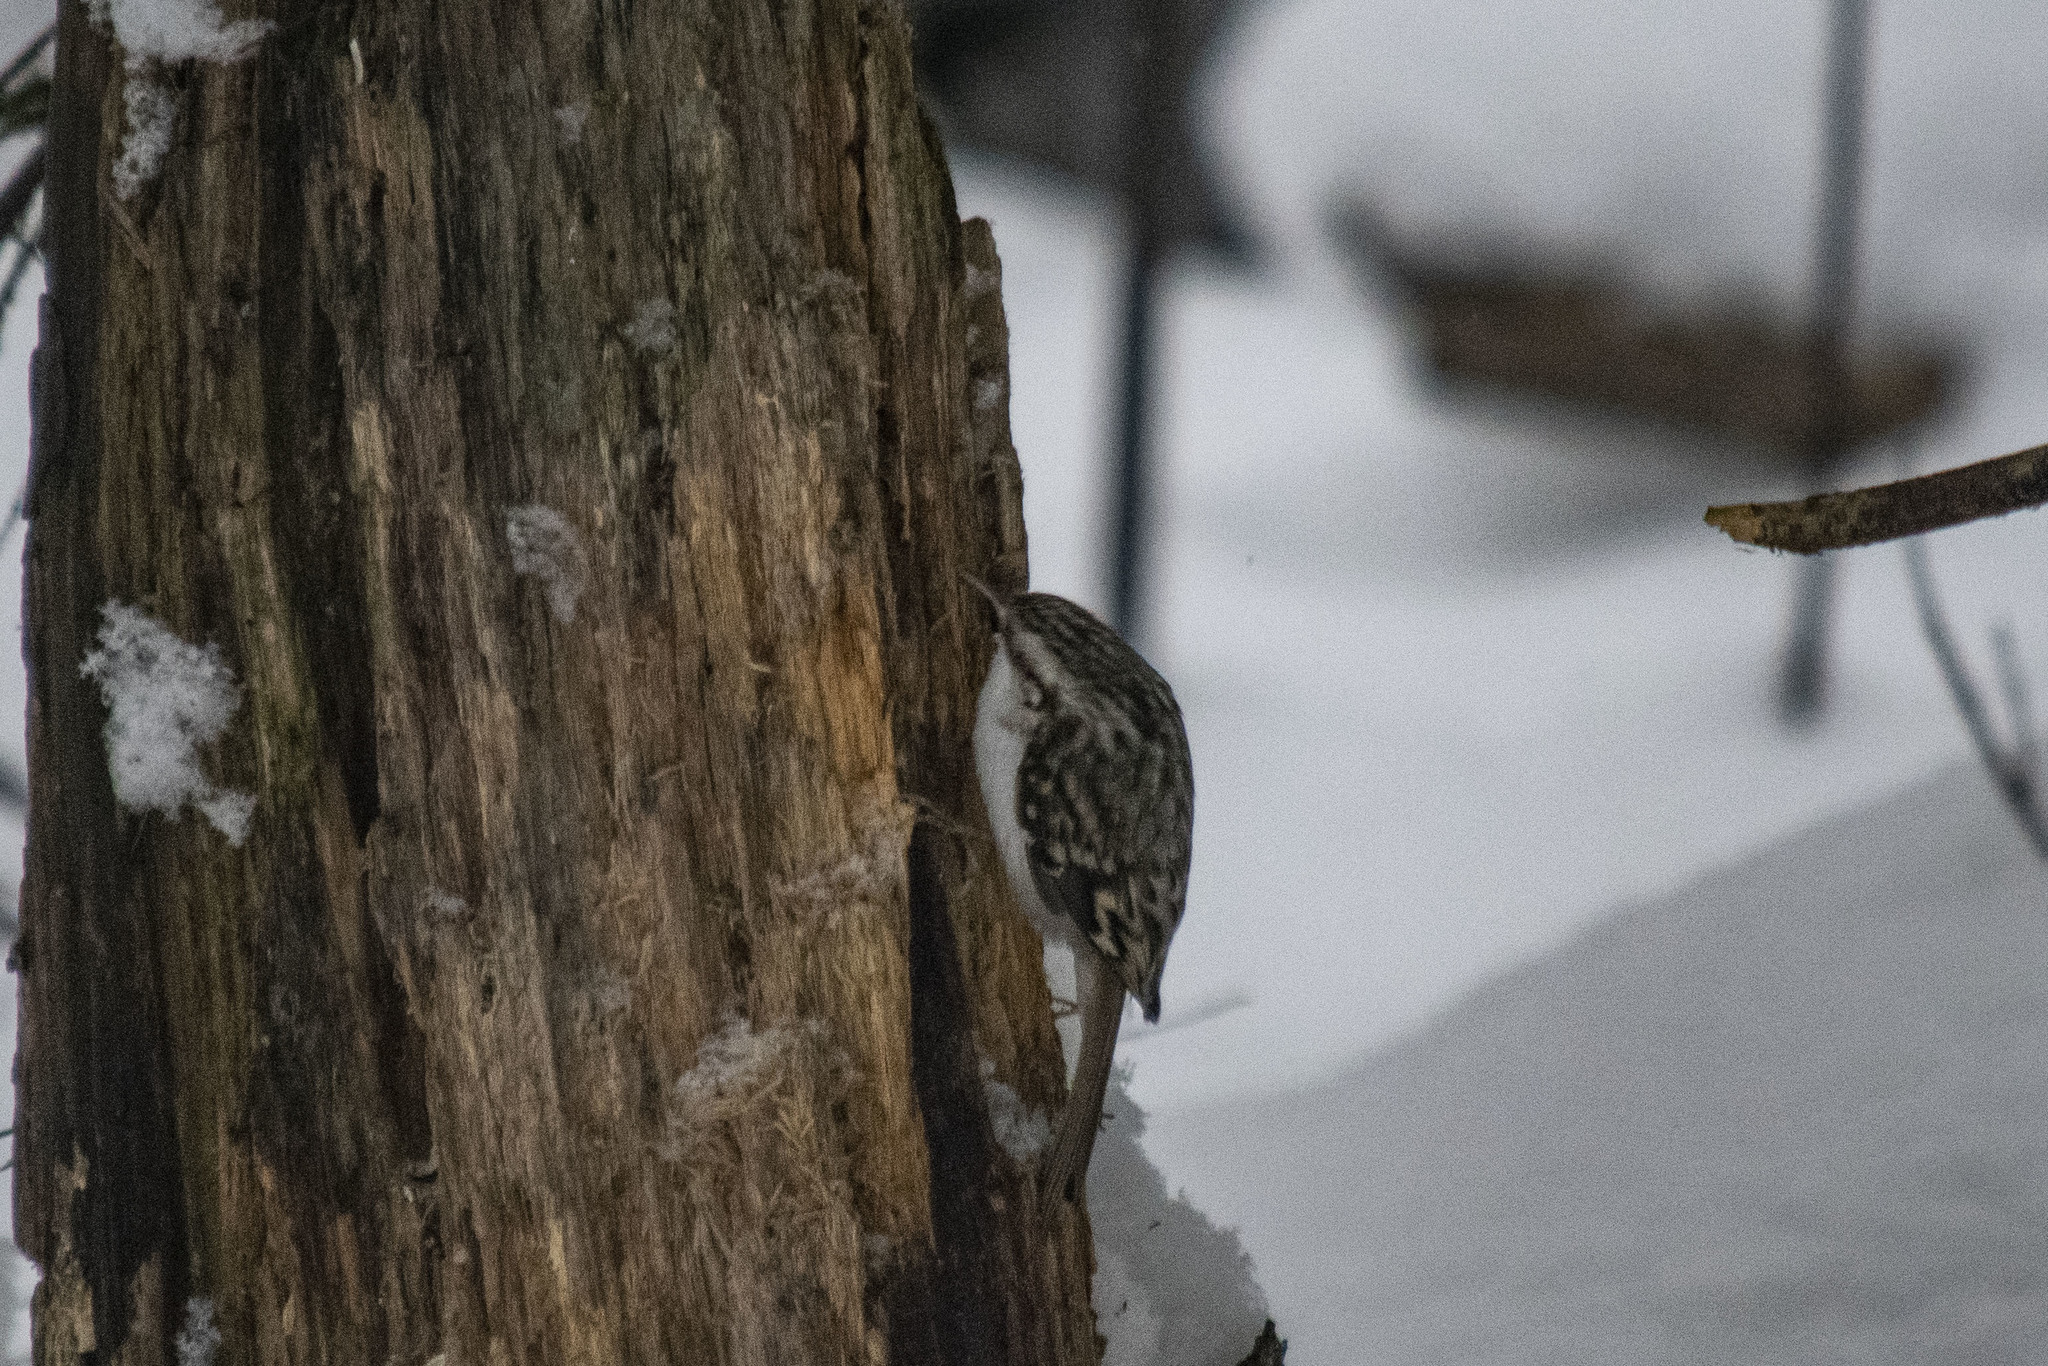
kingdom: Animalia
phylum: Chordata
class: Aves
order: Passeriformes
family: Certhiidae
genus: Certhia
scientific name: Certhia familiaris
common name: Eurasian treecreeper
